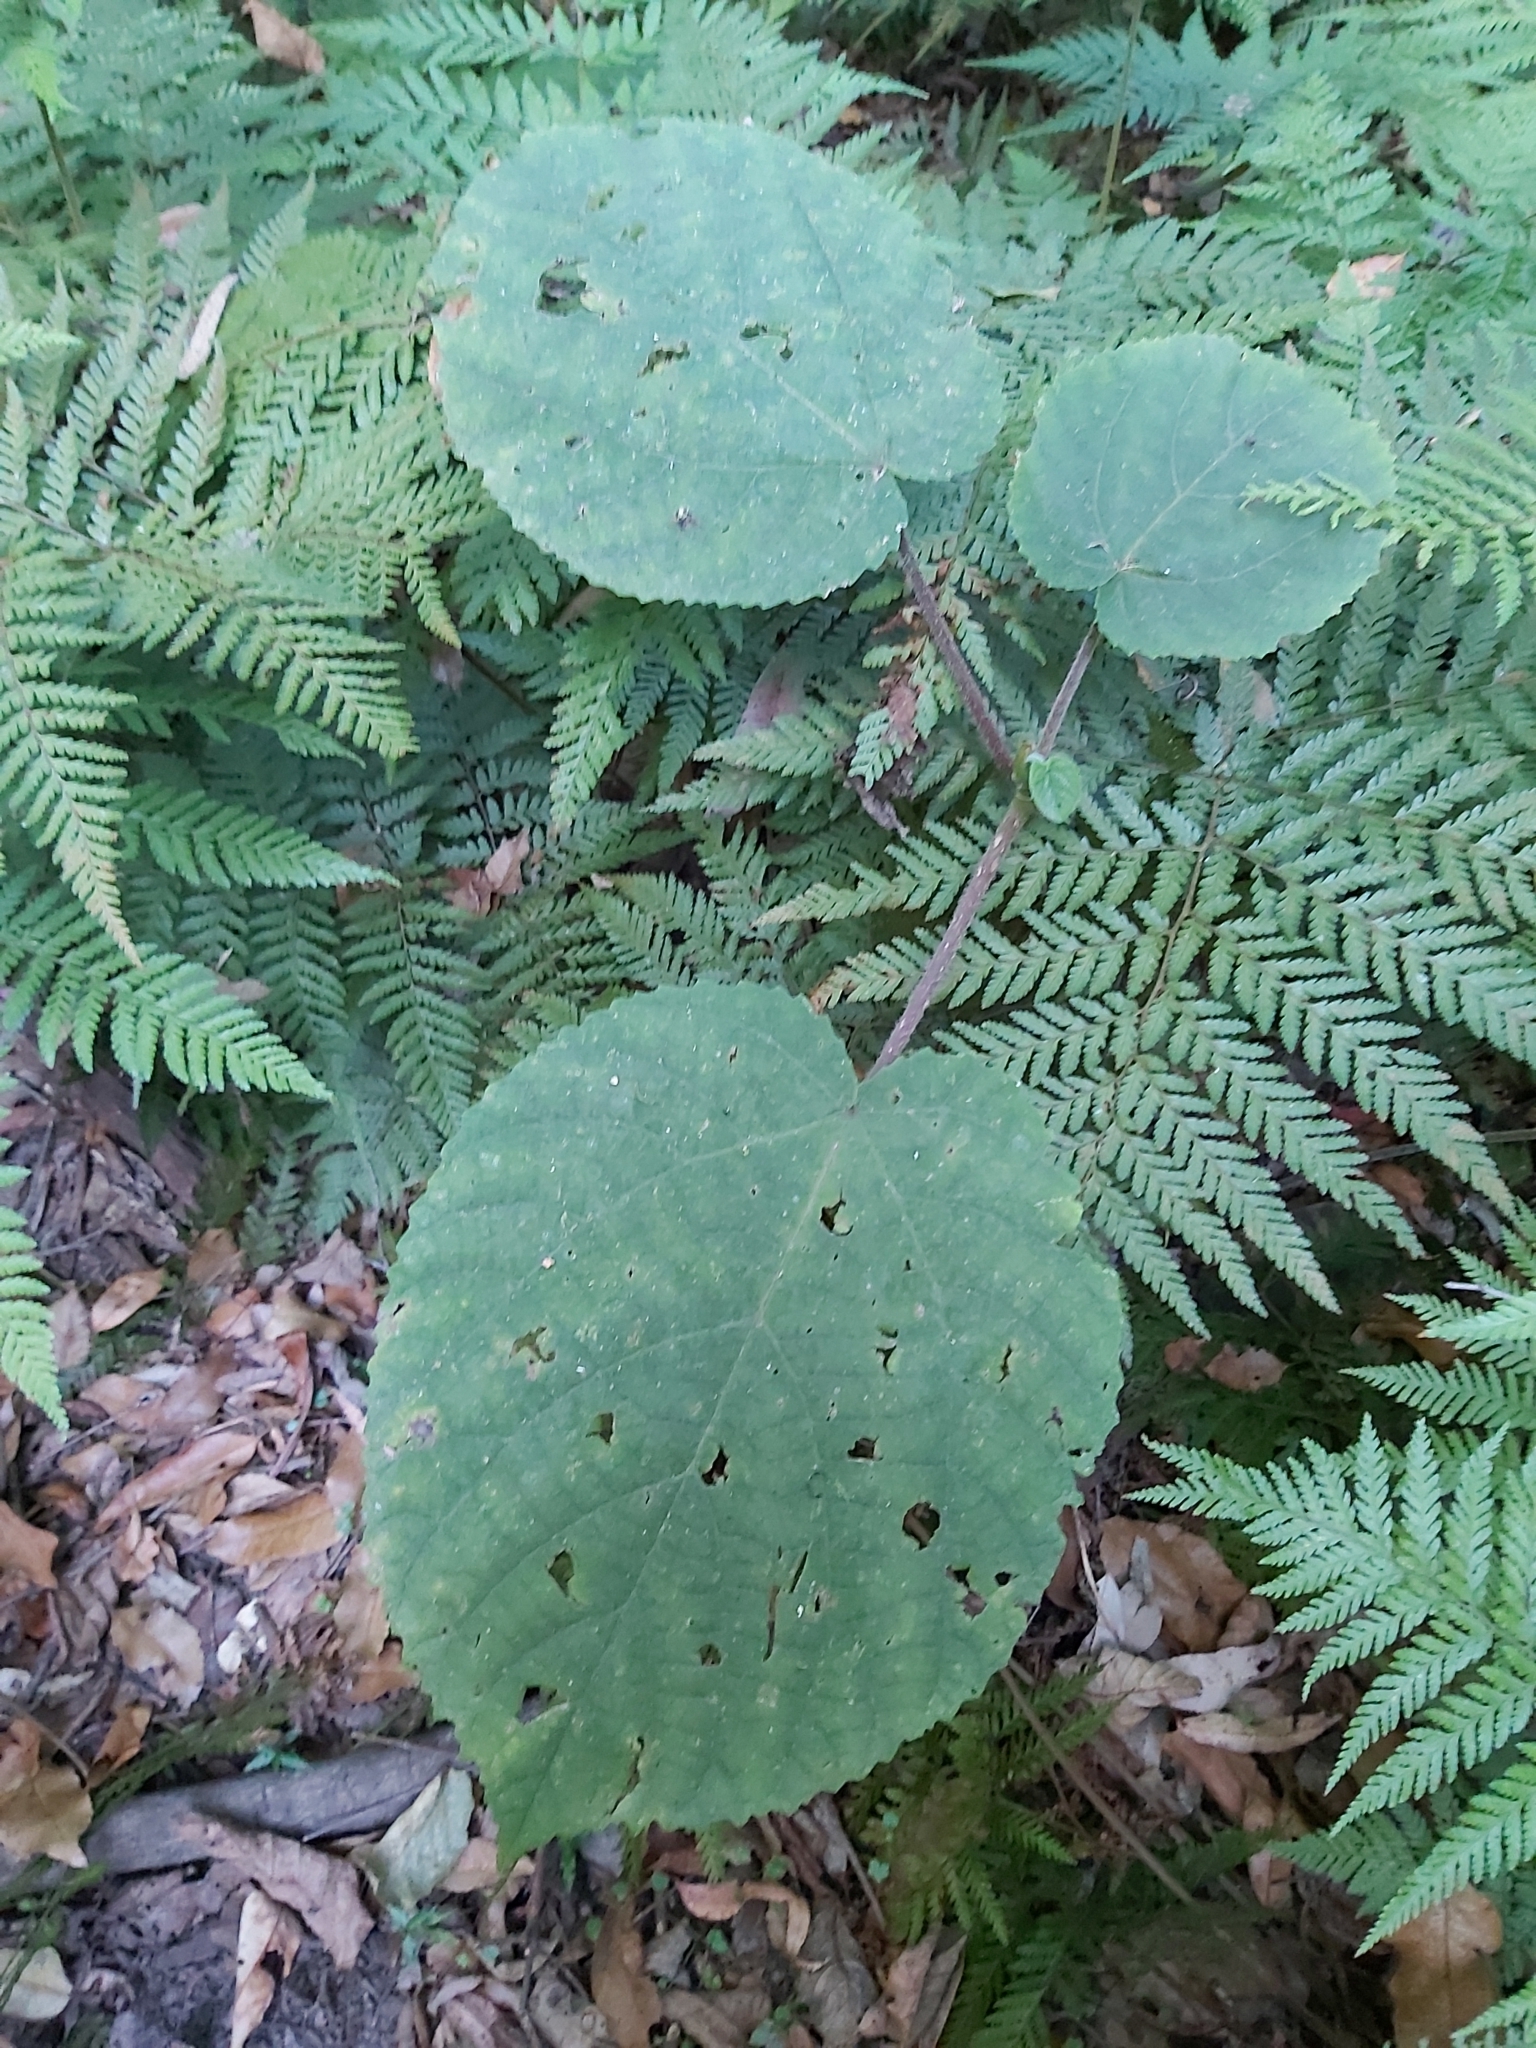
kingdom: Plantae
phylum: Tracheophyta
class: Magnoliopsida
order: Rosales
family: Urticaceae
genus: Dendrocnide
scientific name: Dendrocnide excelsa
